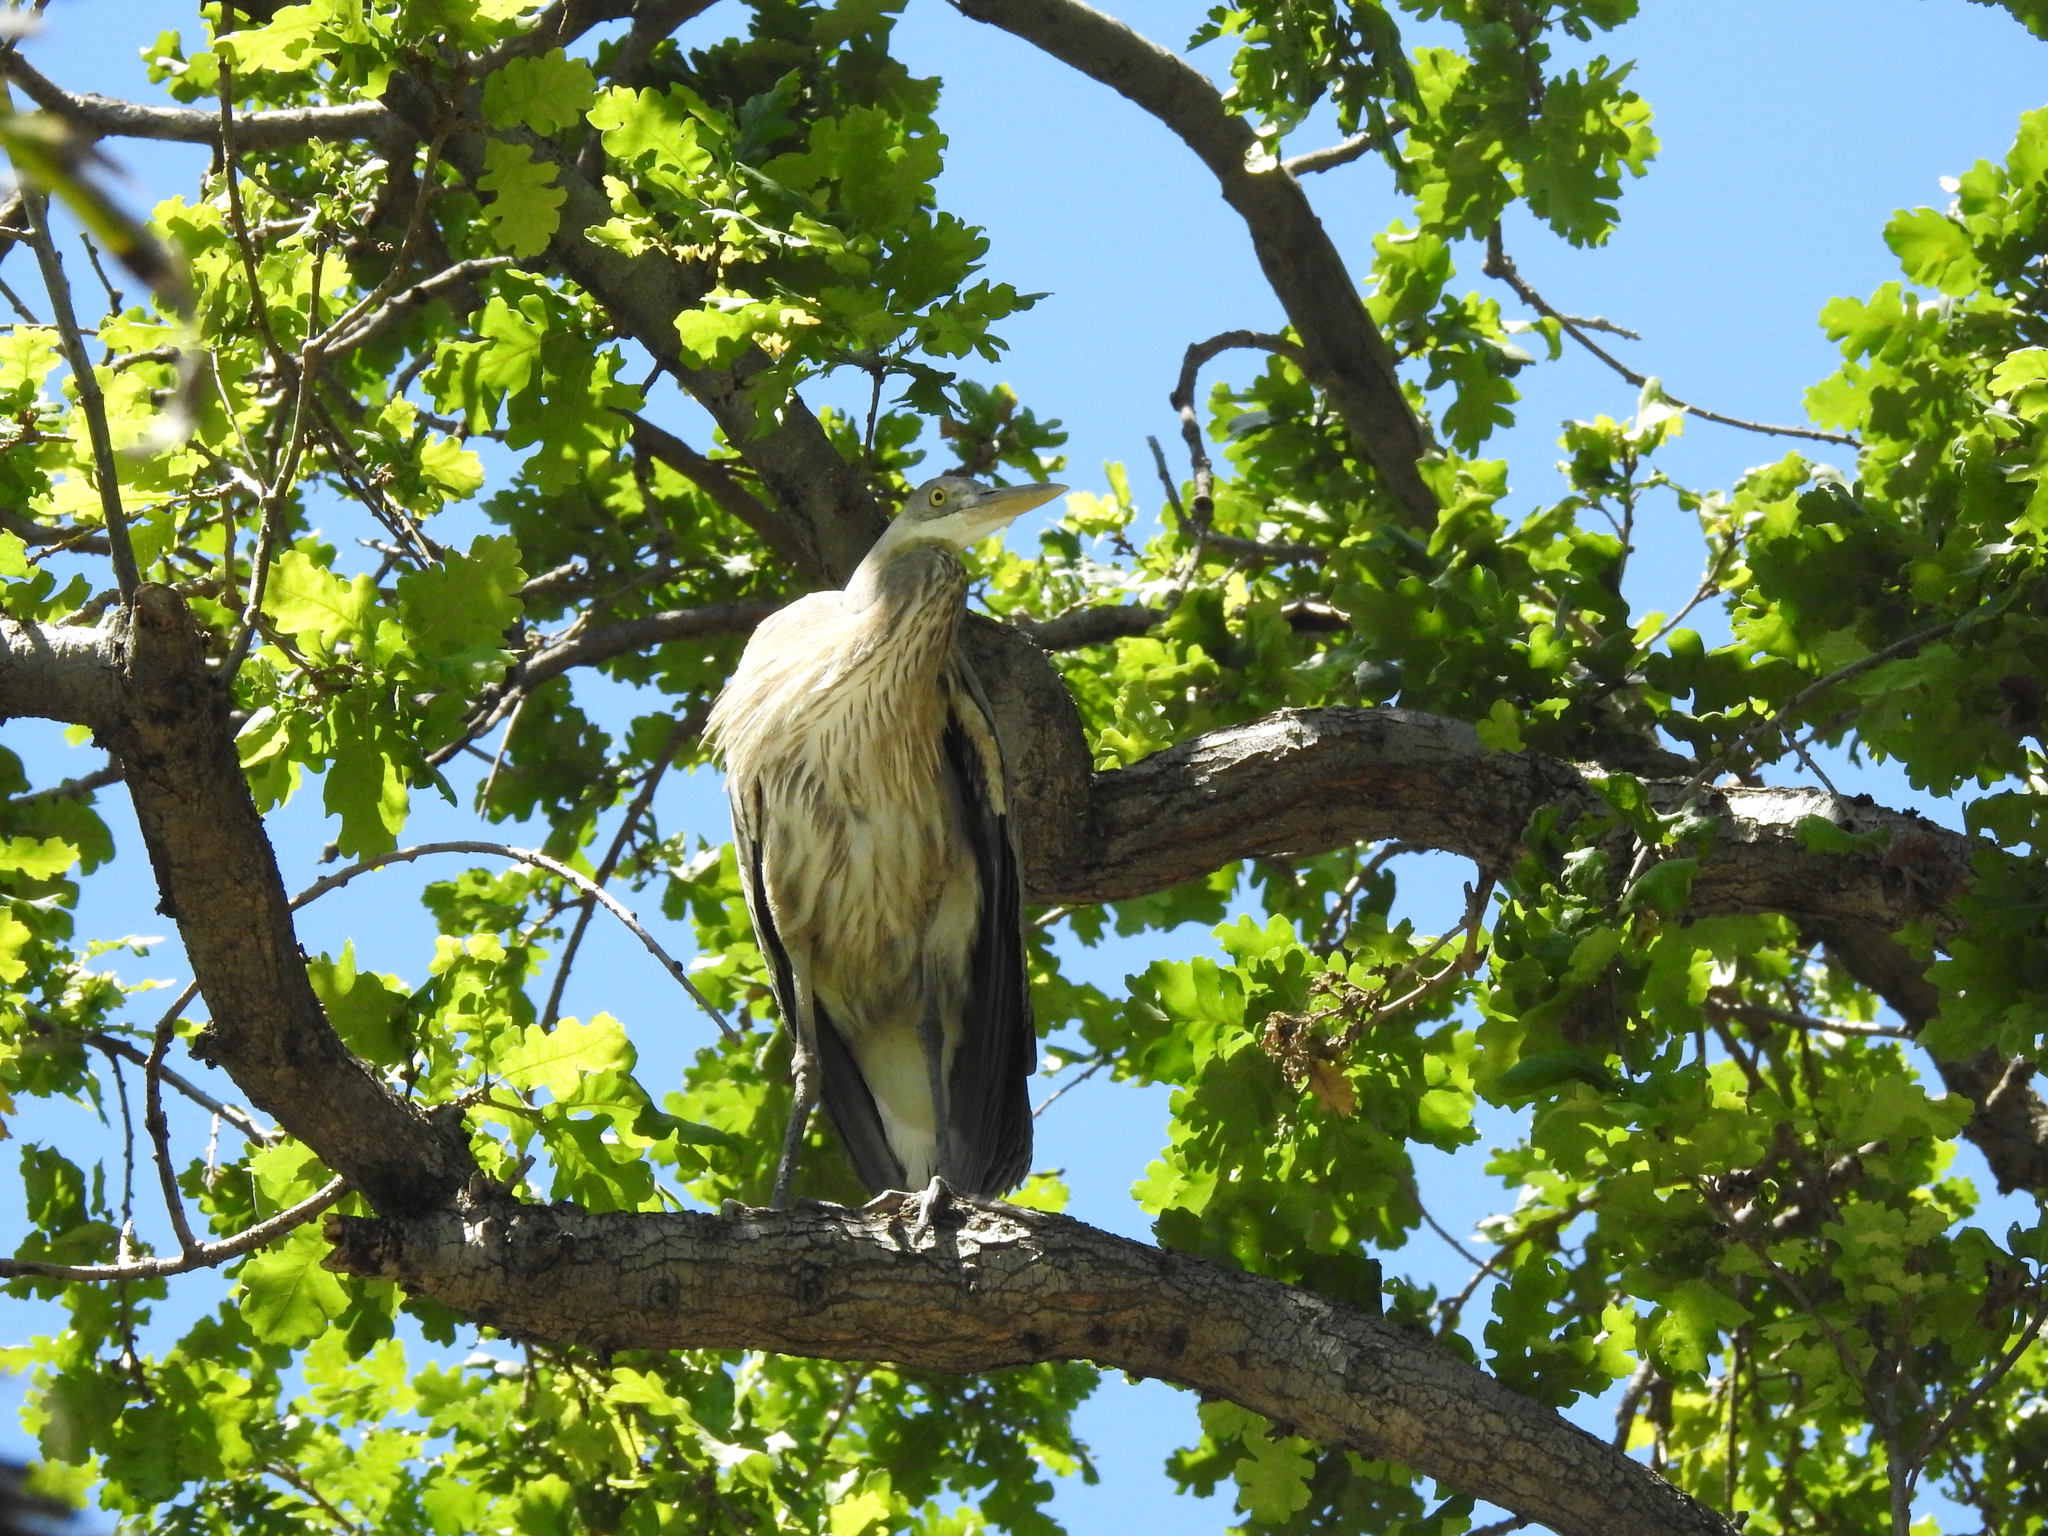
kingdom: Animalia
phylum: Chordata
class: Aves
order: Pelecaniformes
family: Ardeidae
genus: Ardea
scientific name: Ardea herodias
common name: Great blue heron
